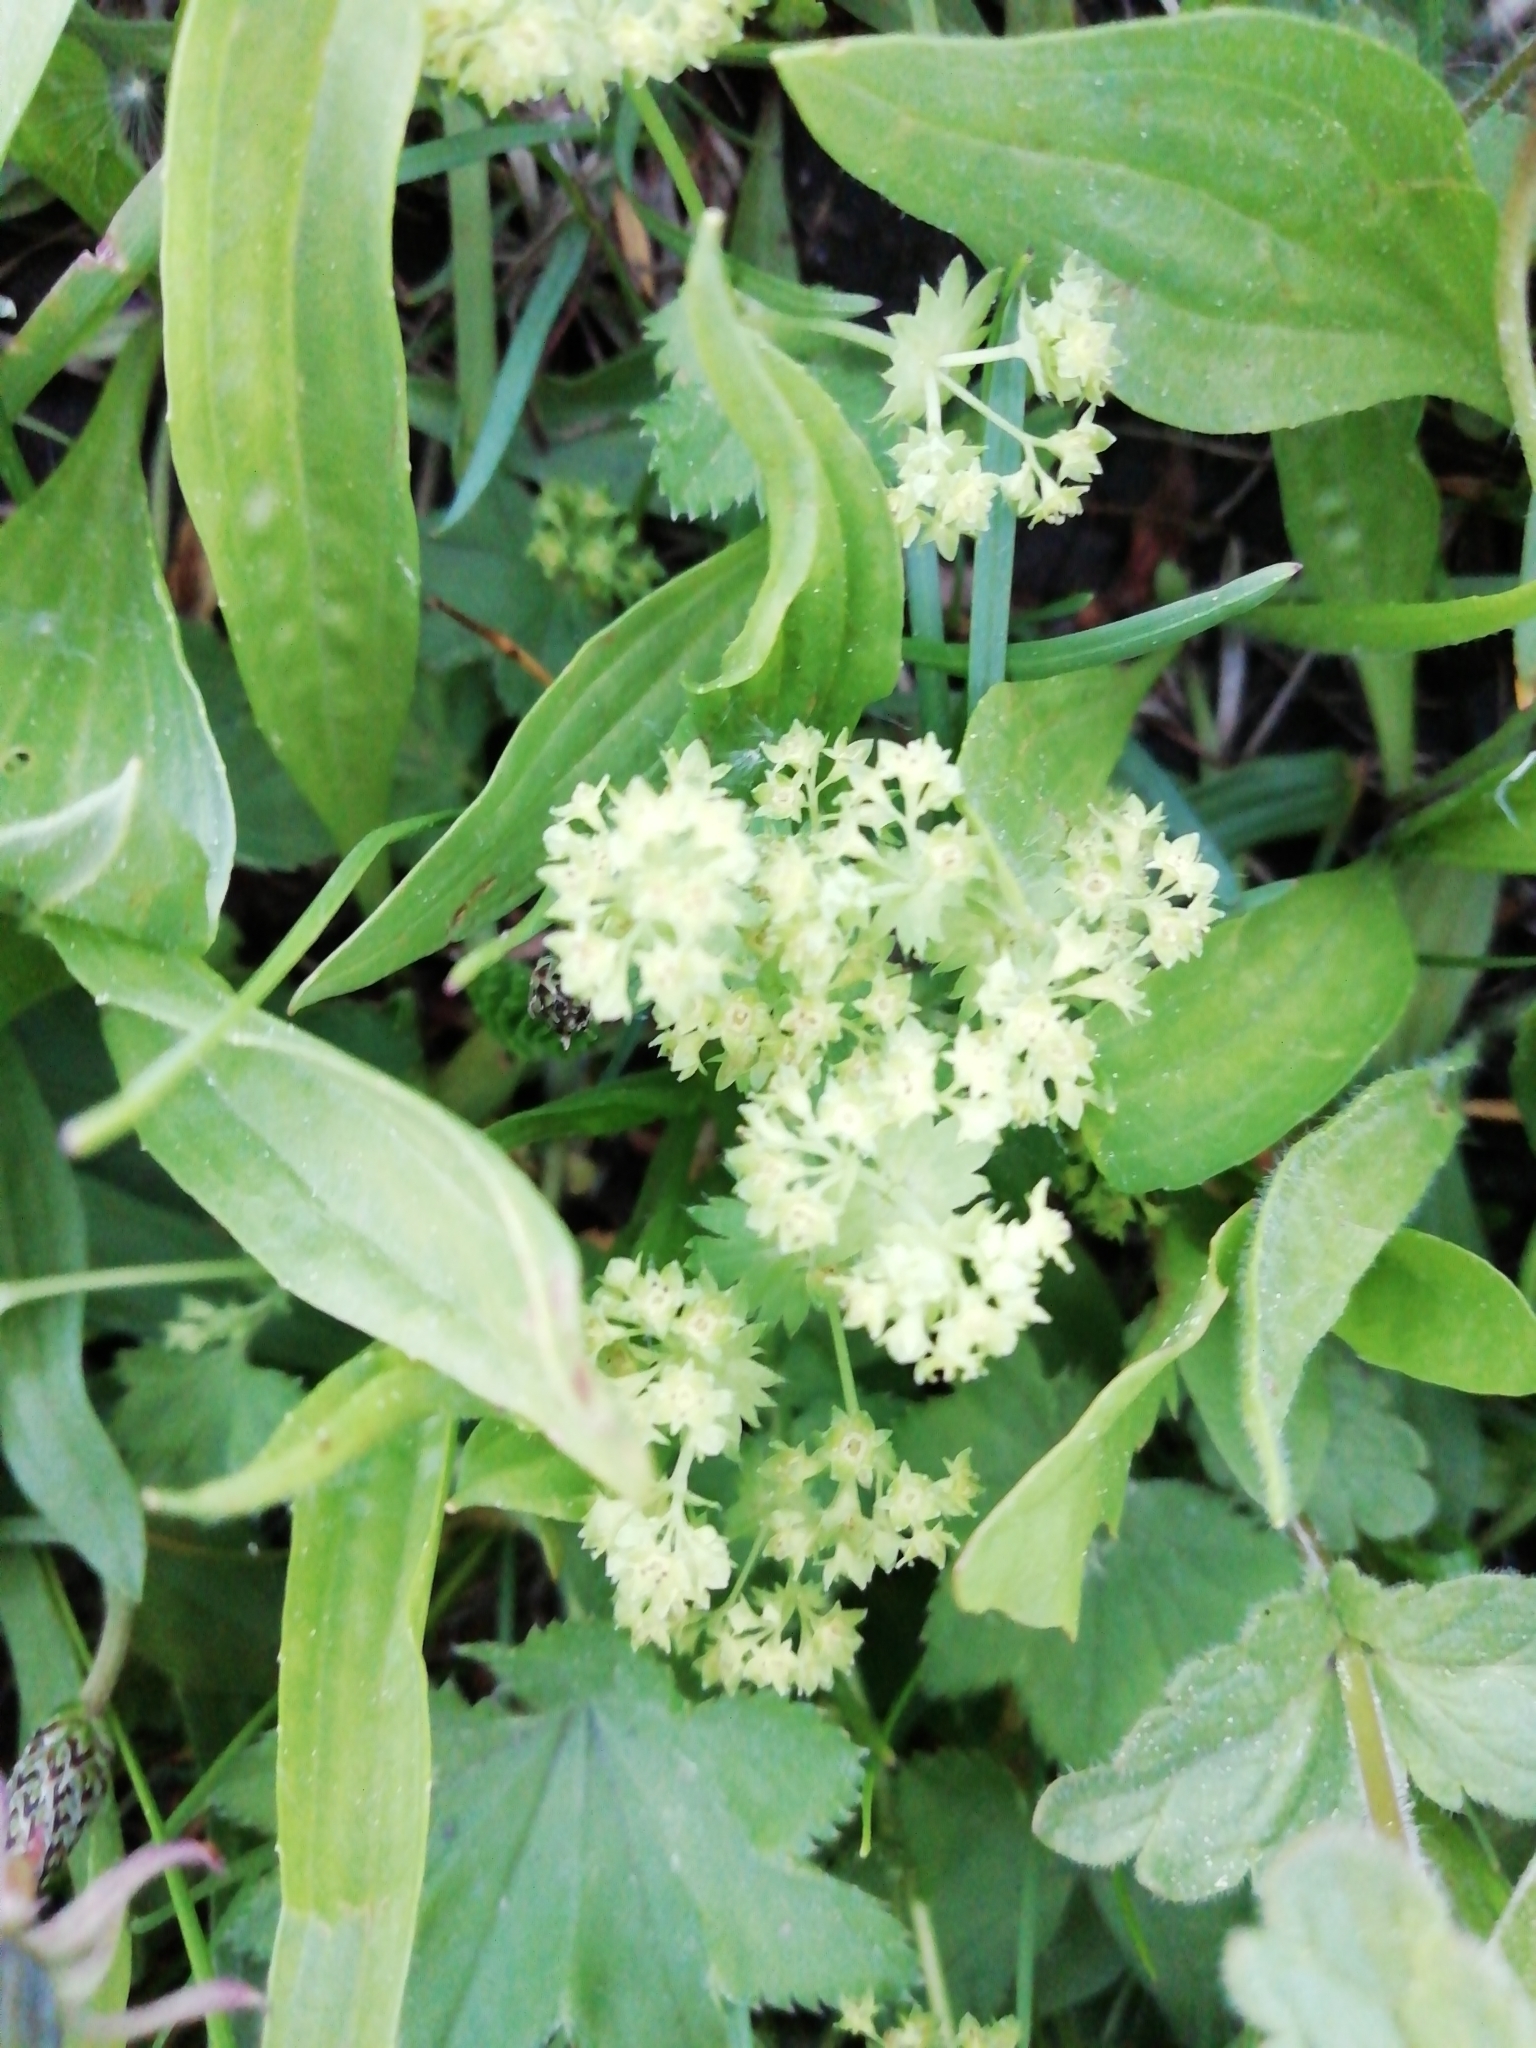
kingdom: Plantae
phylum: Tracheophyta
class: Magnoliopsida
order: Rosales
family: Rosaceae
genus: Alchemilla
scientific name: Alchemilla
